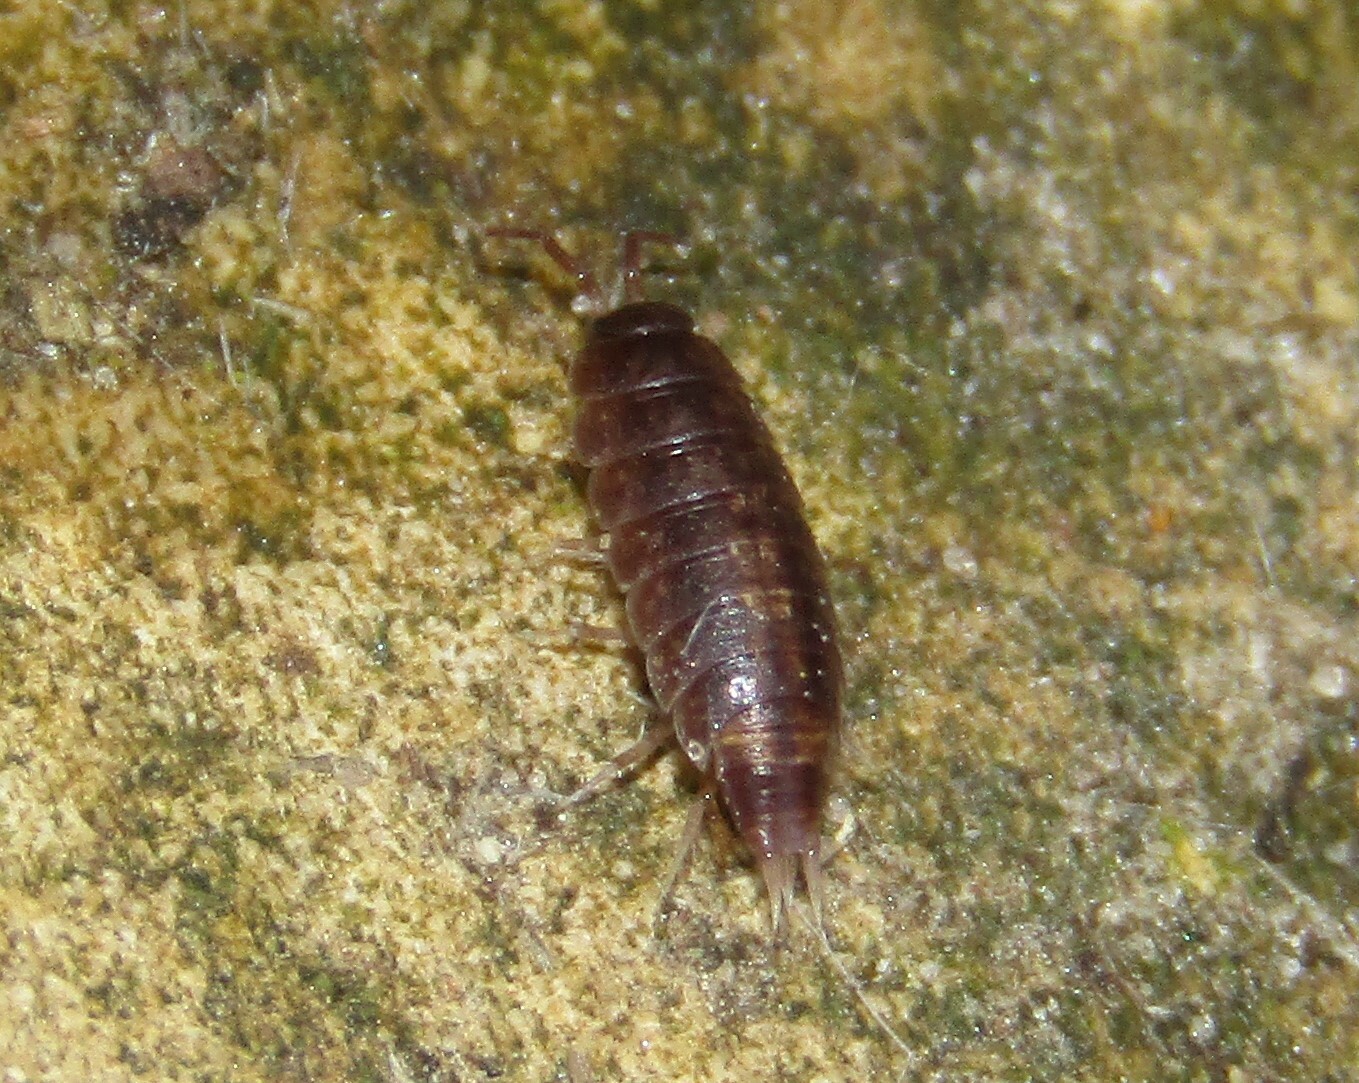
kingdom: Animalia
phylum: Arthropoda
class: Malacostraca
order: Isopoda
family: Trichoniscidae
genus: Hyloniscus
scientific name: Hyloniscus riparius
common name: Isopod
